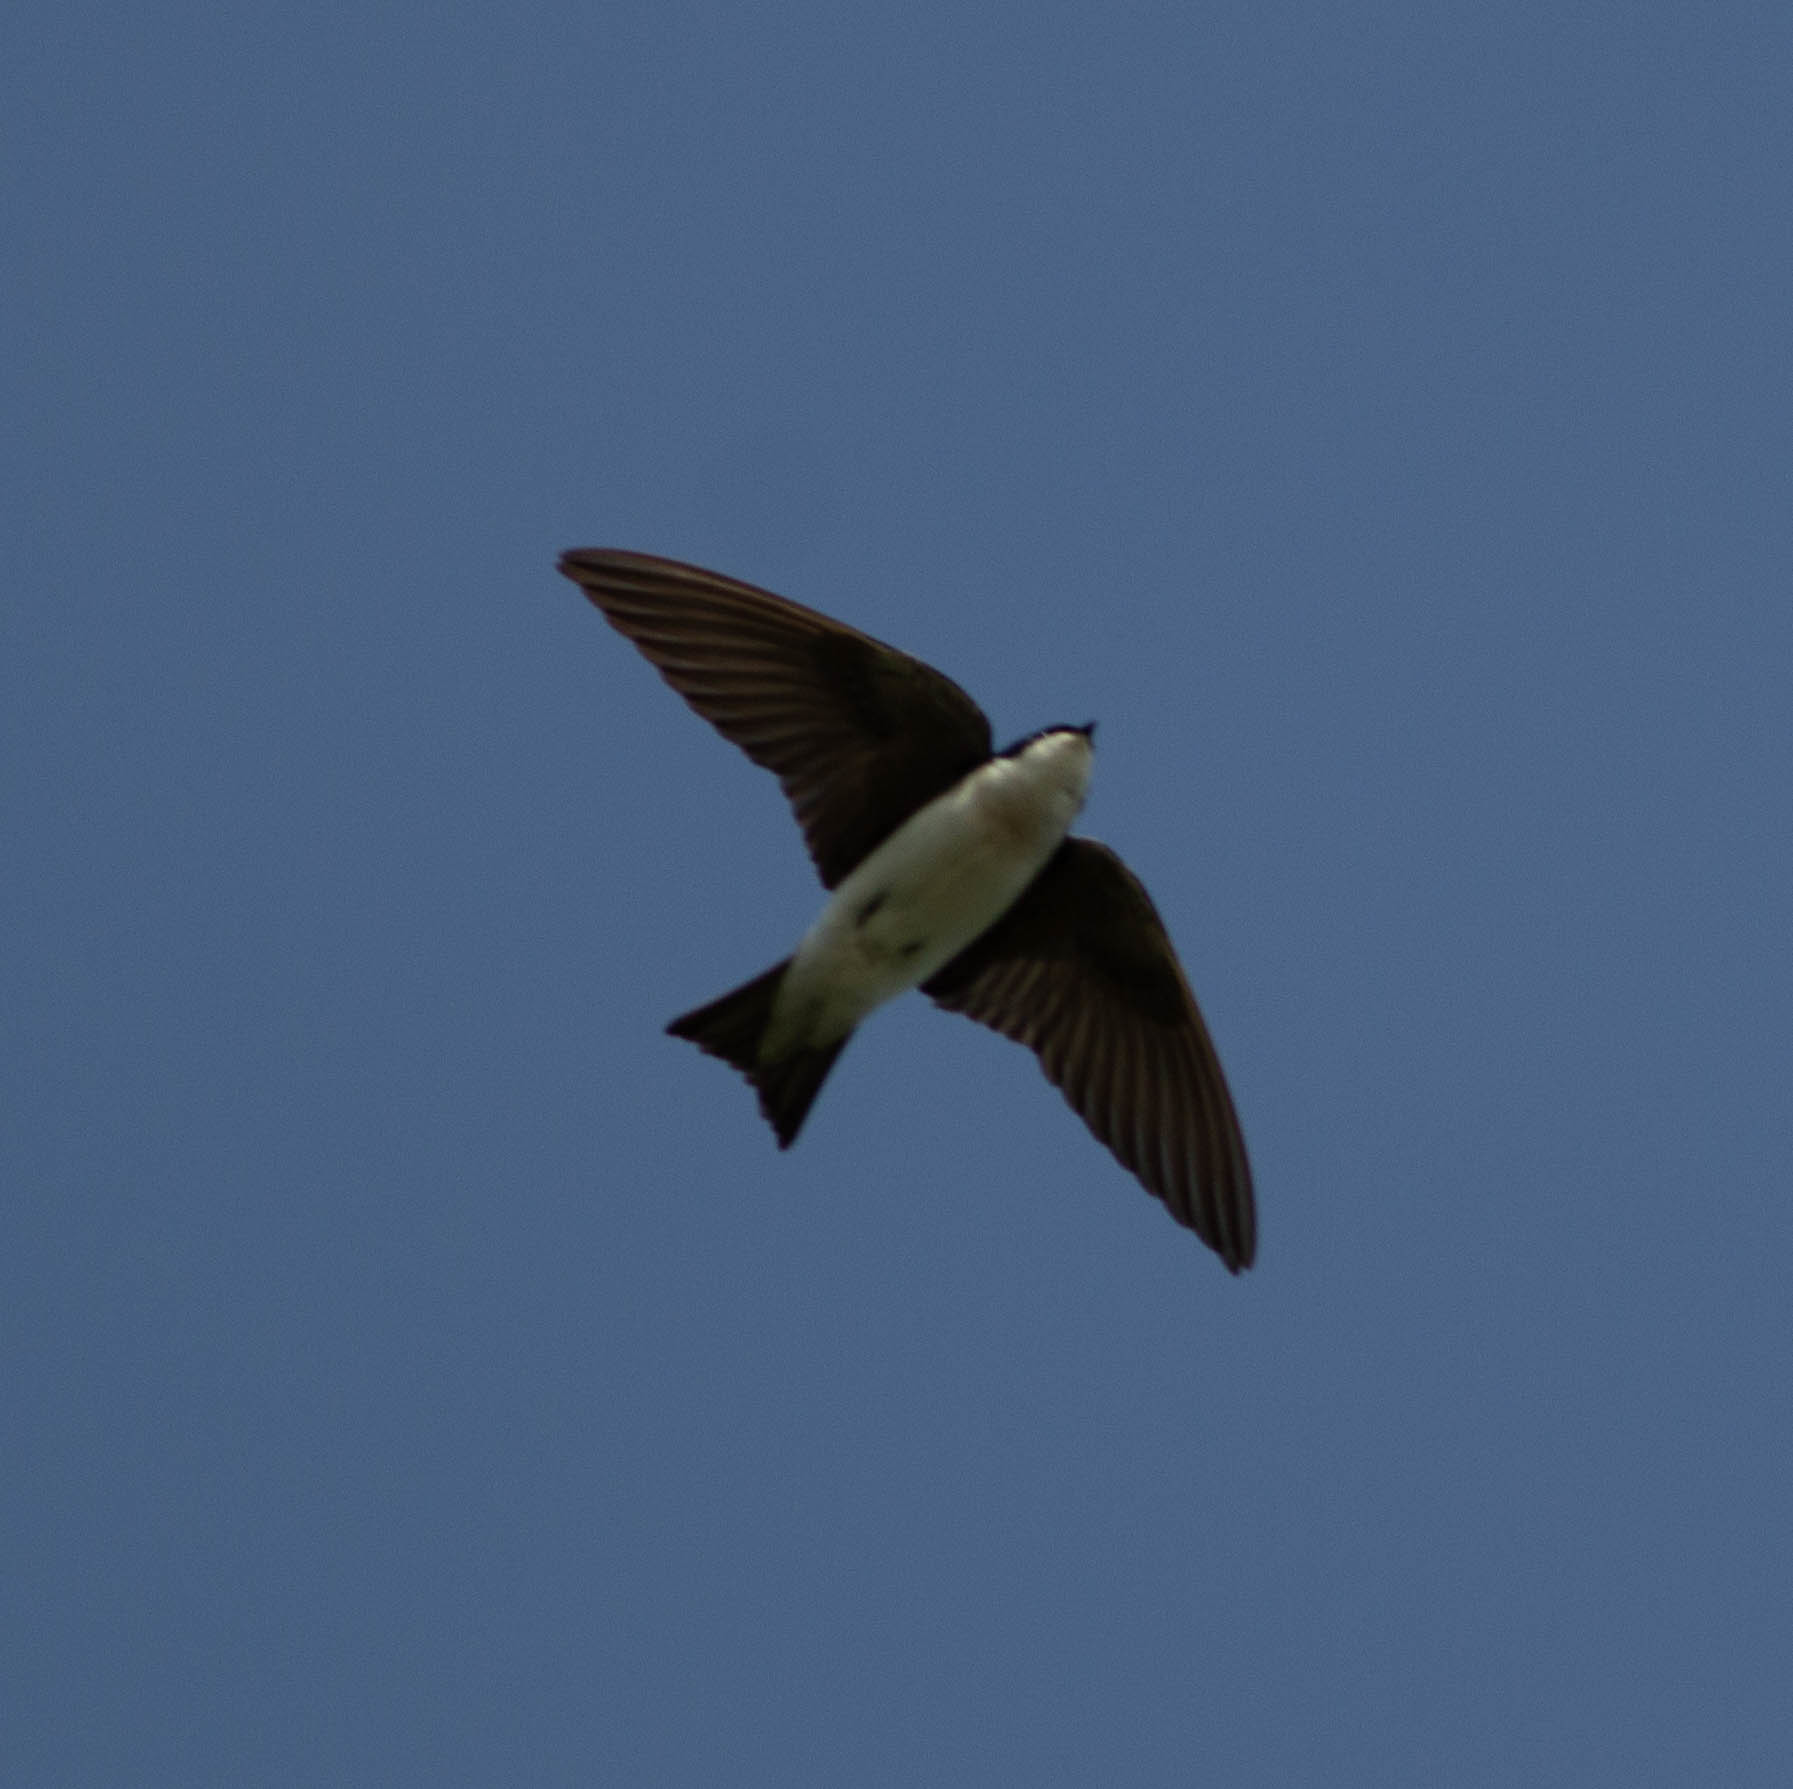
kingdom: Animalia
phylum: Chordata
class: Aves
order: Passeriformes
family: Hirundinidae
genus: Tachycineta
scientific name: Tachycineta bicolor
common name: Tree swallow
